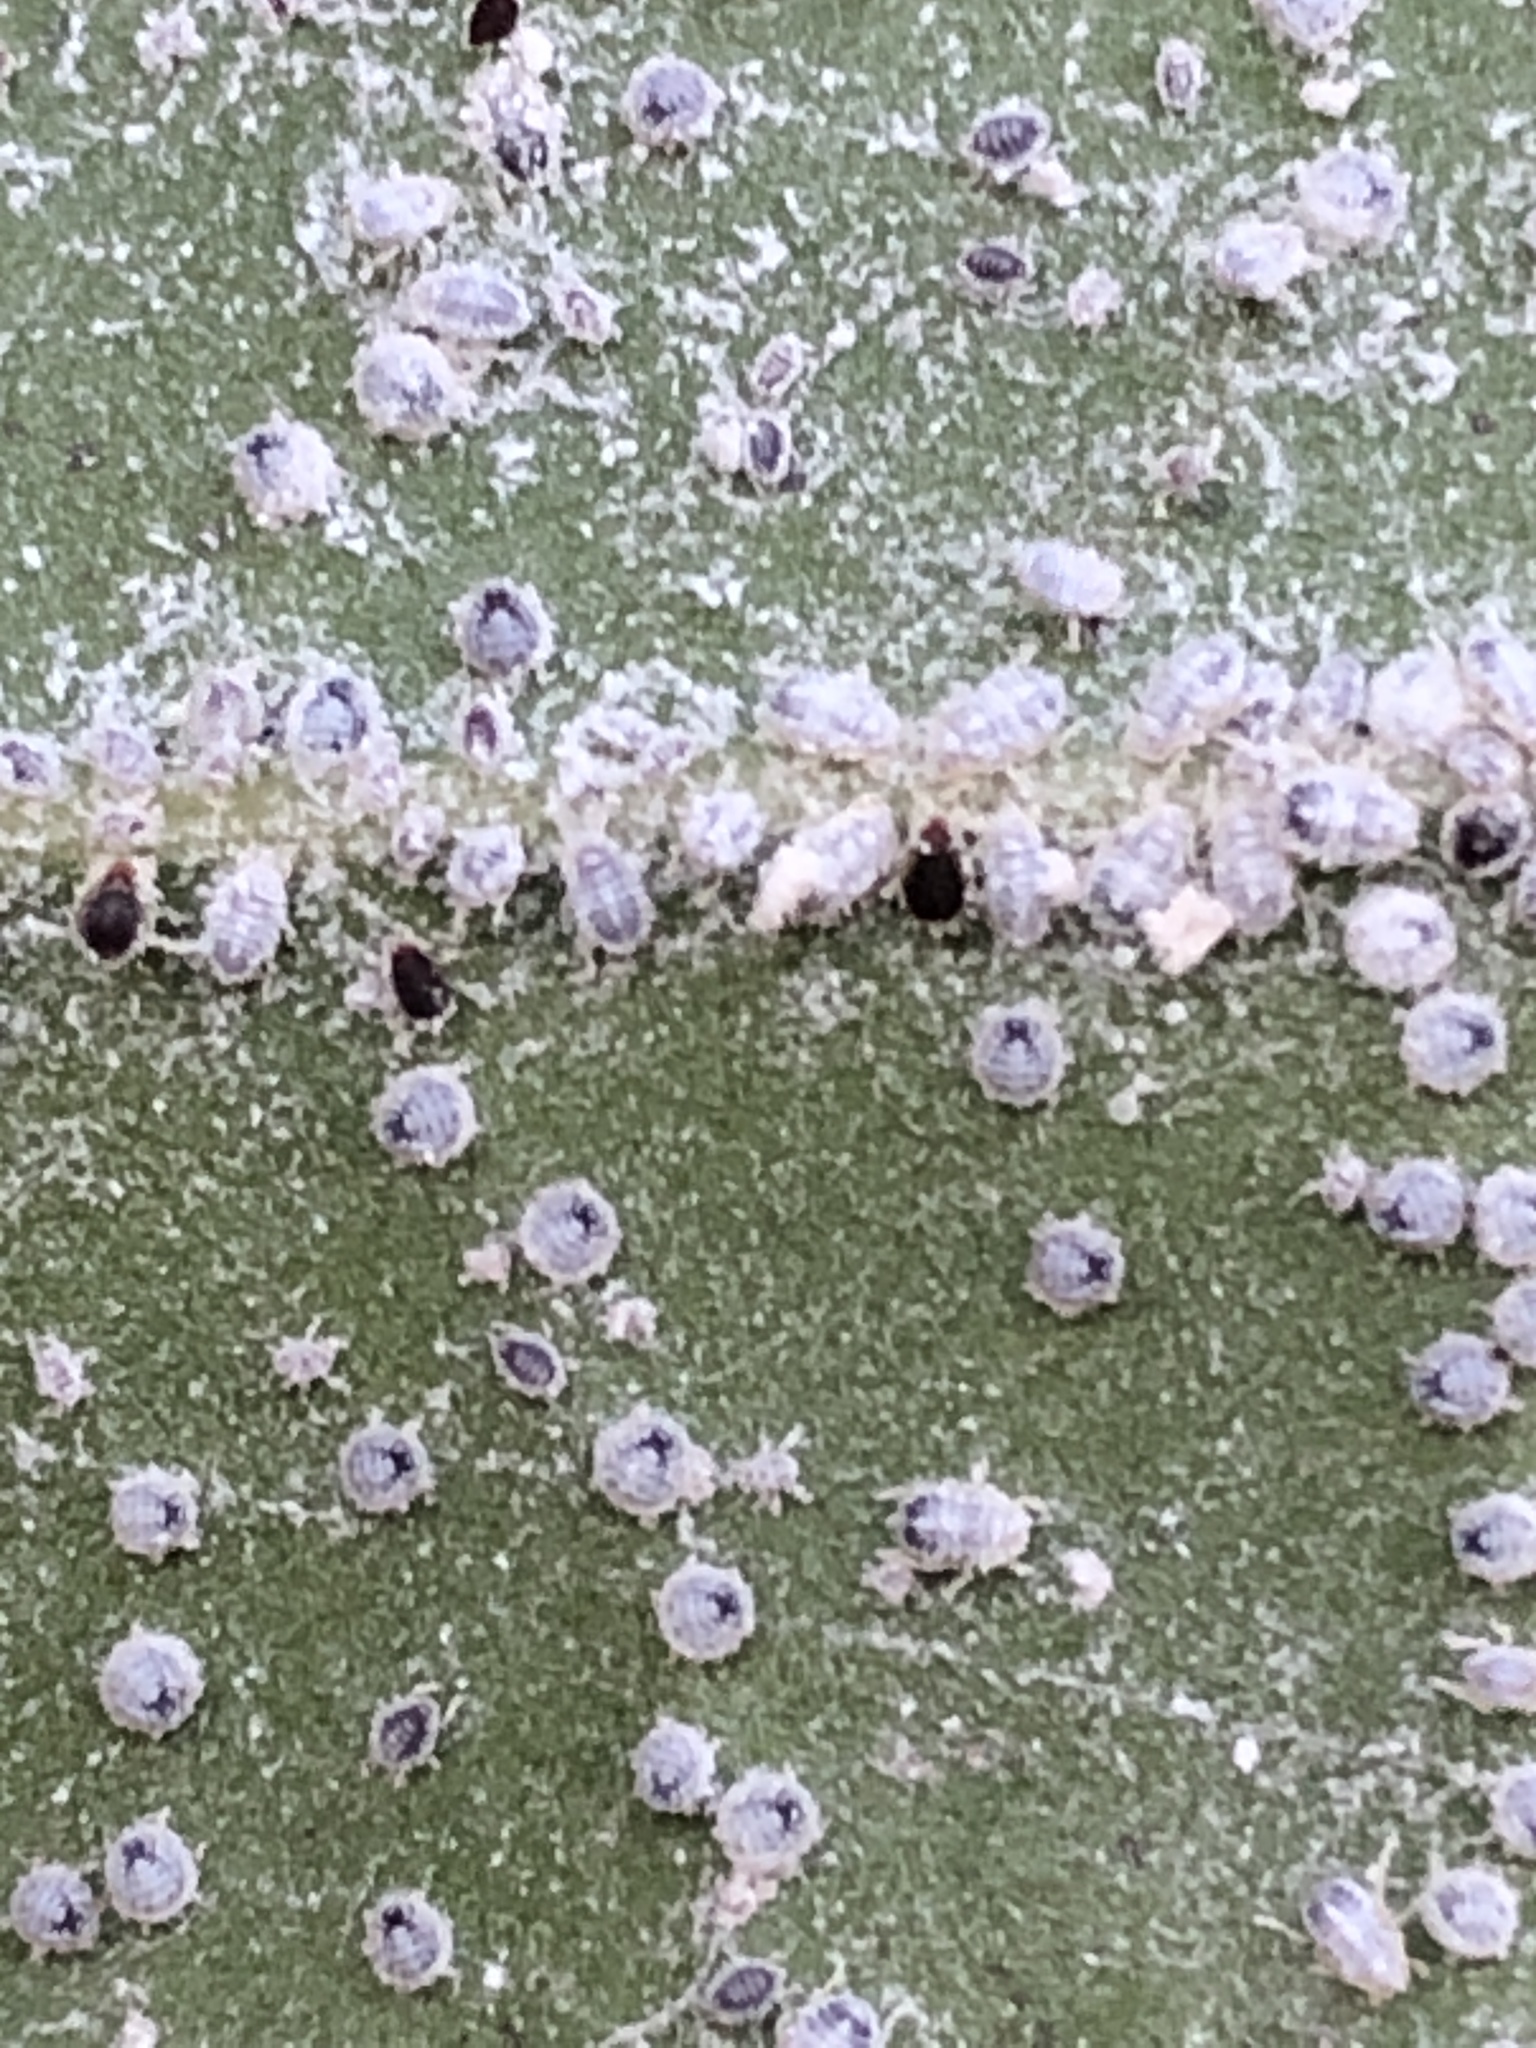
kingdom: Animalia
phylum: Arthropoda
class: Insecta
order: Hemiptera
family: Aphididae
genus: Euthoracaphis
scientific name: Euthoracaphis umbellulariae
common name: Aphid
